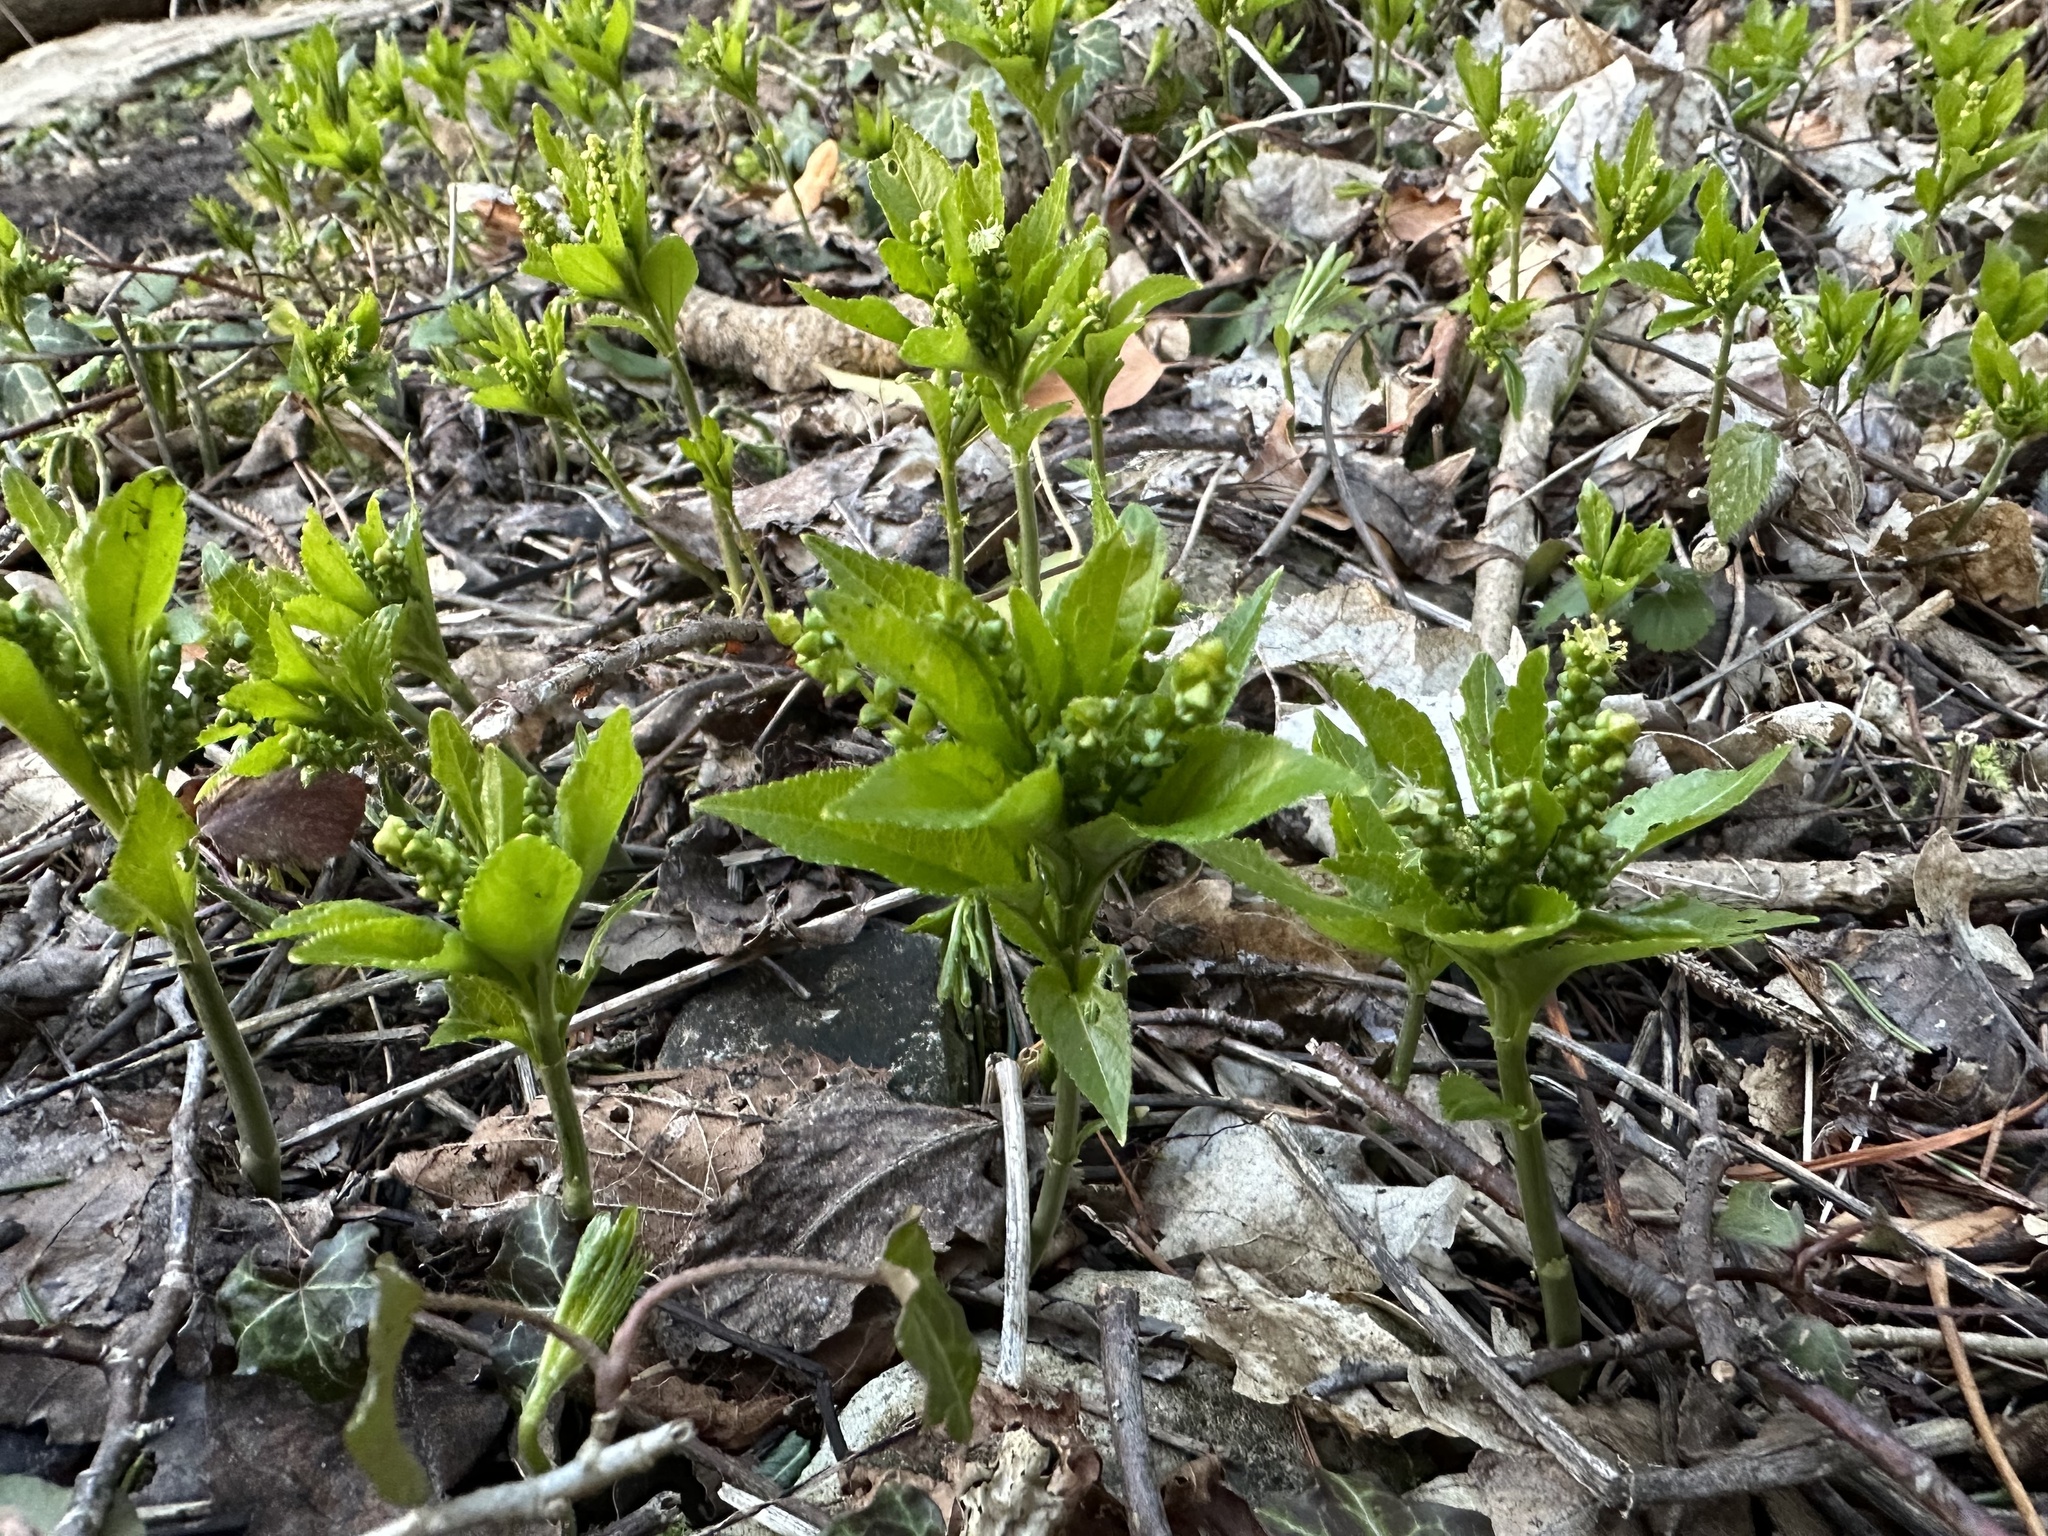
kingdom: Plantae
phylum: Tracheophyta
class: Magnoliopsida
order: Malpighiales
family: Euphorbiaceae
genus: Mercurialis
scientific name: Mercurialis perennis
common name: Dog mercury
